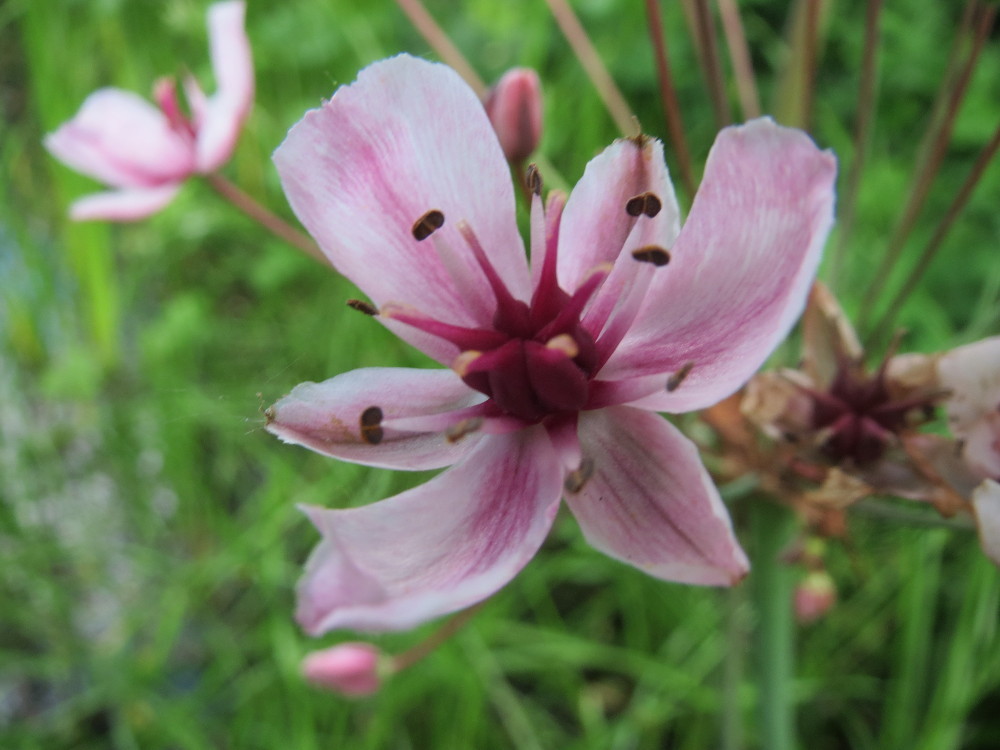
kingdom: Plantae
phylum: Tracheophyta
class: Liliopsida
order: Alismatales
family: Butomaceae
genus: Butomus
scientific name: Butomus umbellatus
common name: Flowering-rush
